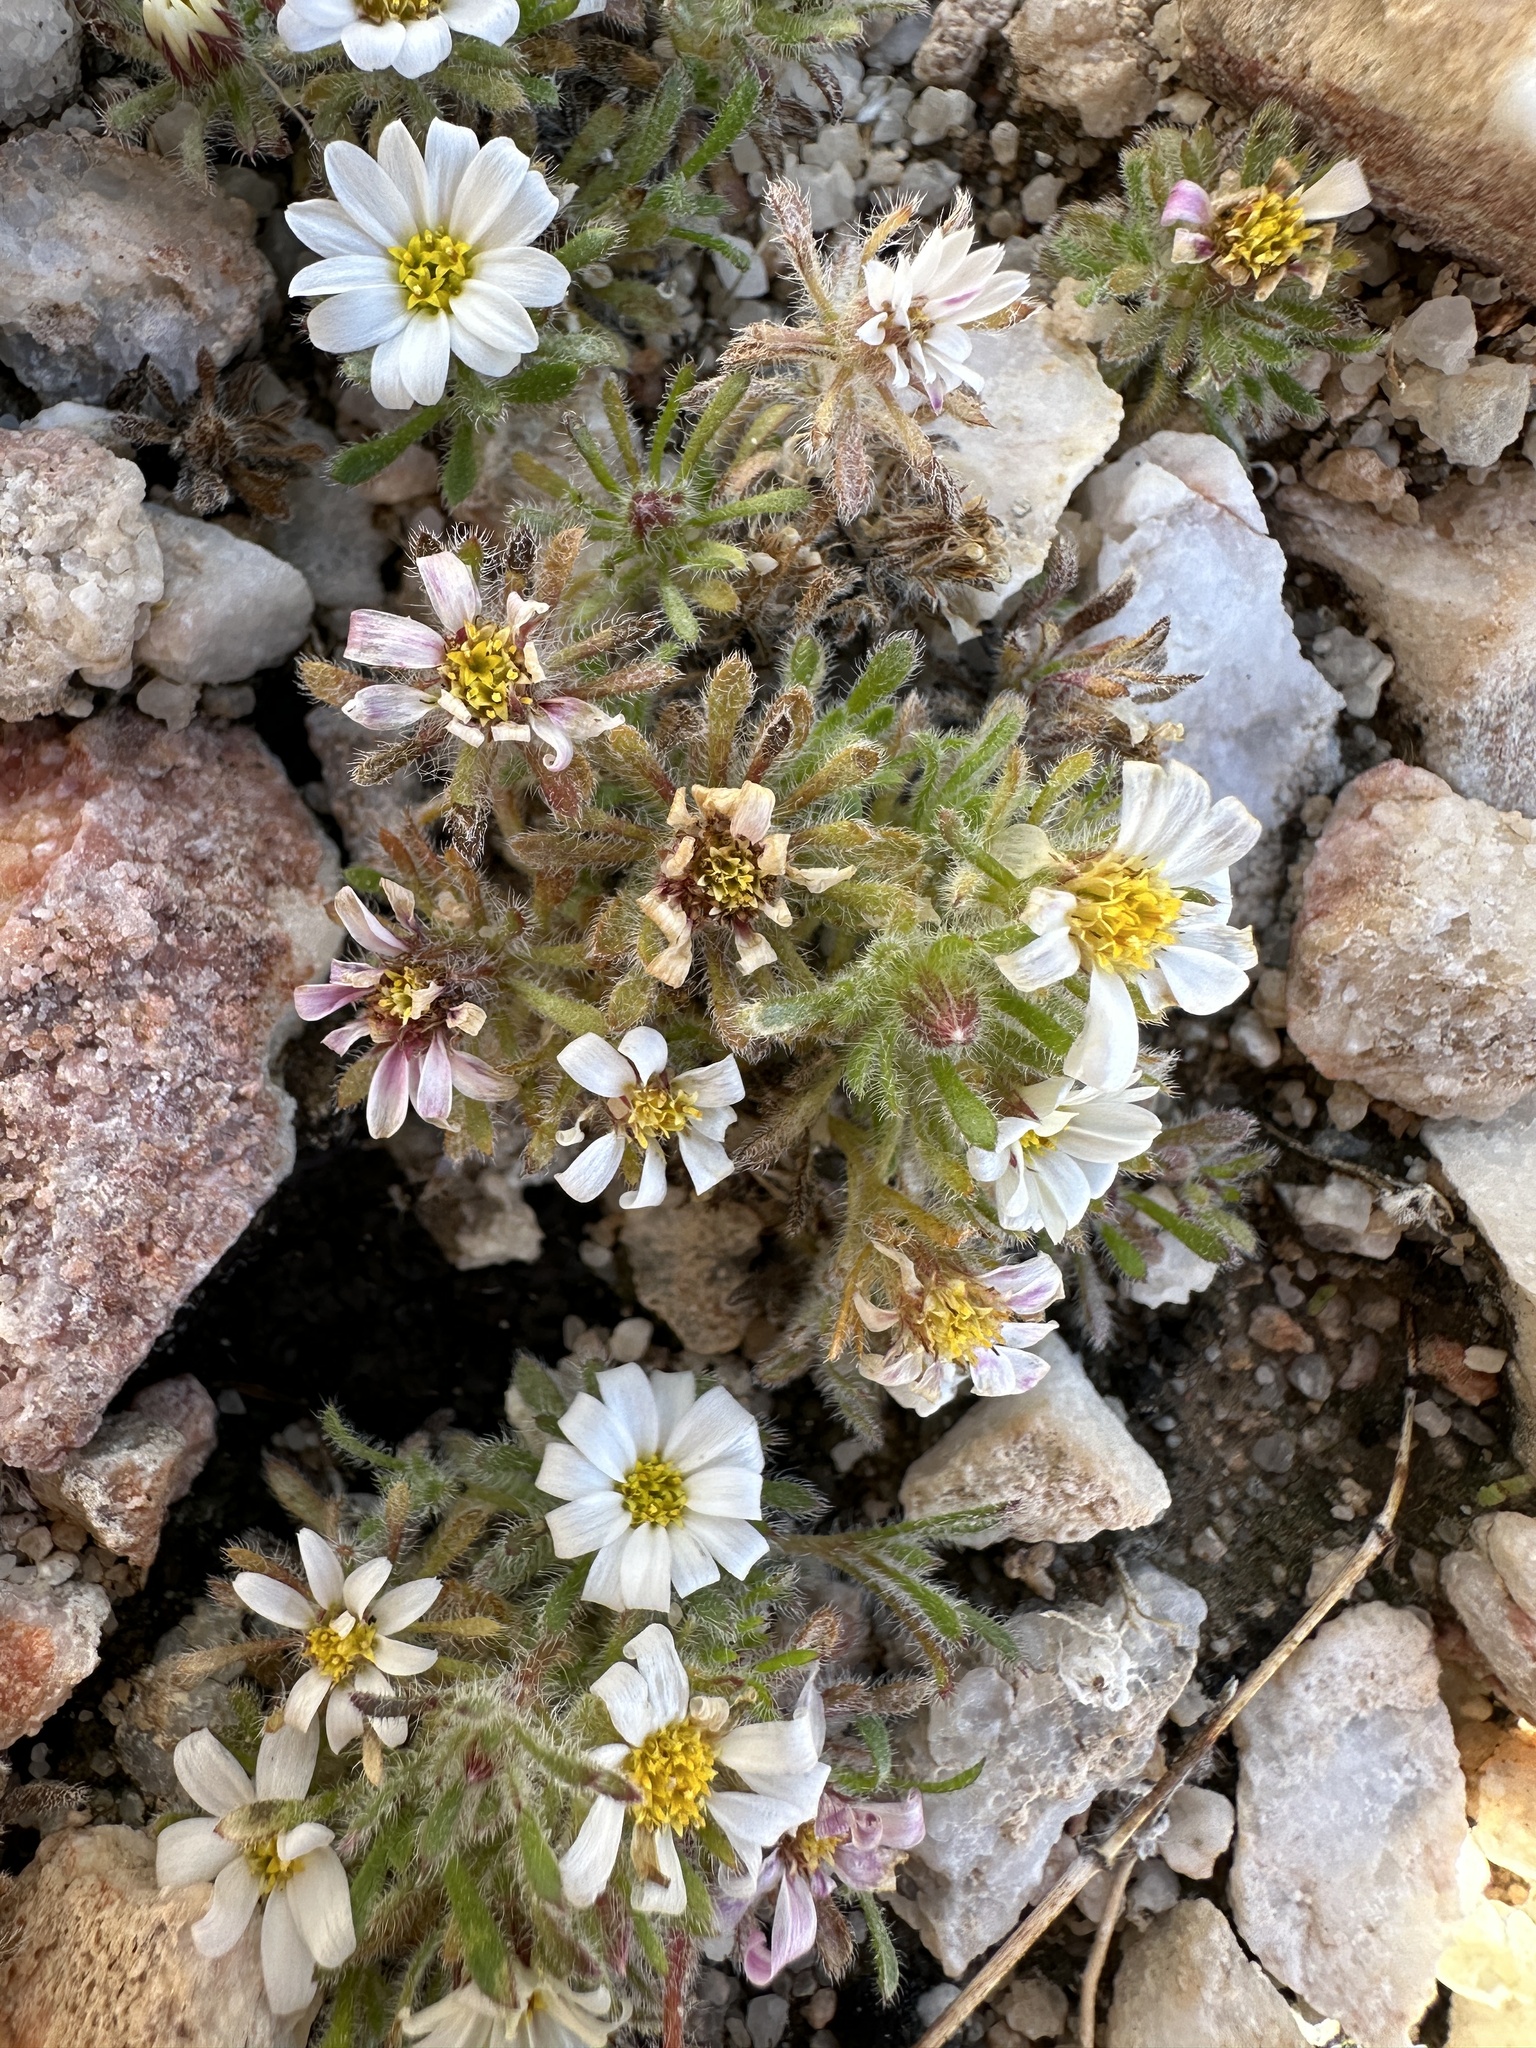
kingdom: Plantae
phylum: Tracheophyta
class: Magnoliopsida
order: Asterales
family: Asteraceae
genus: Monoptilon
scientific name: Monoptilon bellioides
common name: Bristly desertstar
